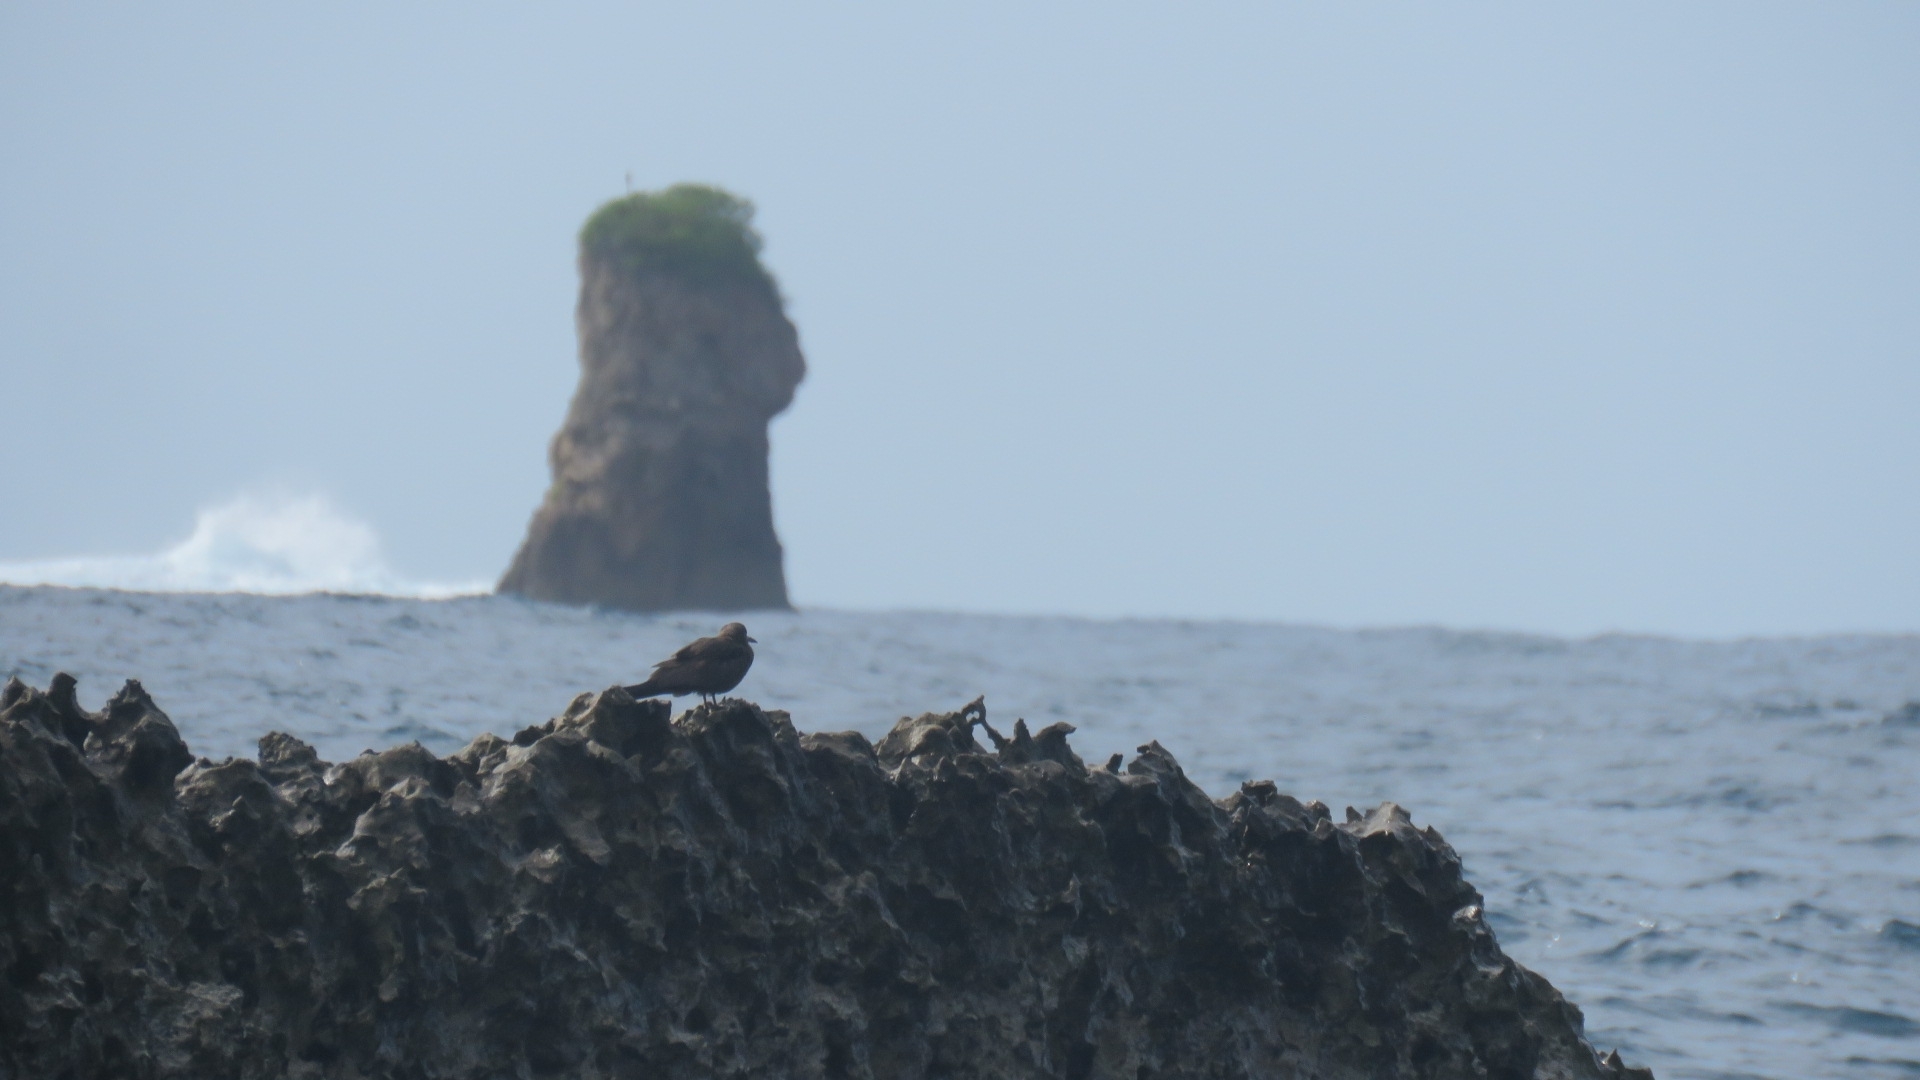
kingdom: Animalia
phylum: Chordata
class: Aves
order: Charadriiformes
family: Laridae
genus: Anous
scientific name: Anous stolidus
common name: Brown noddy
